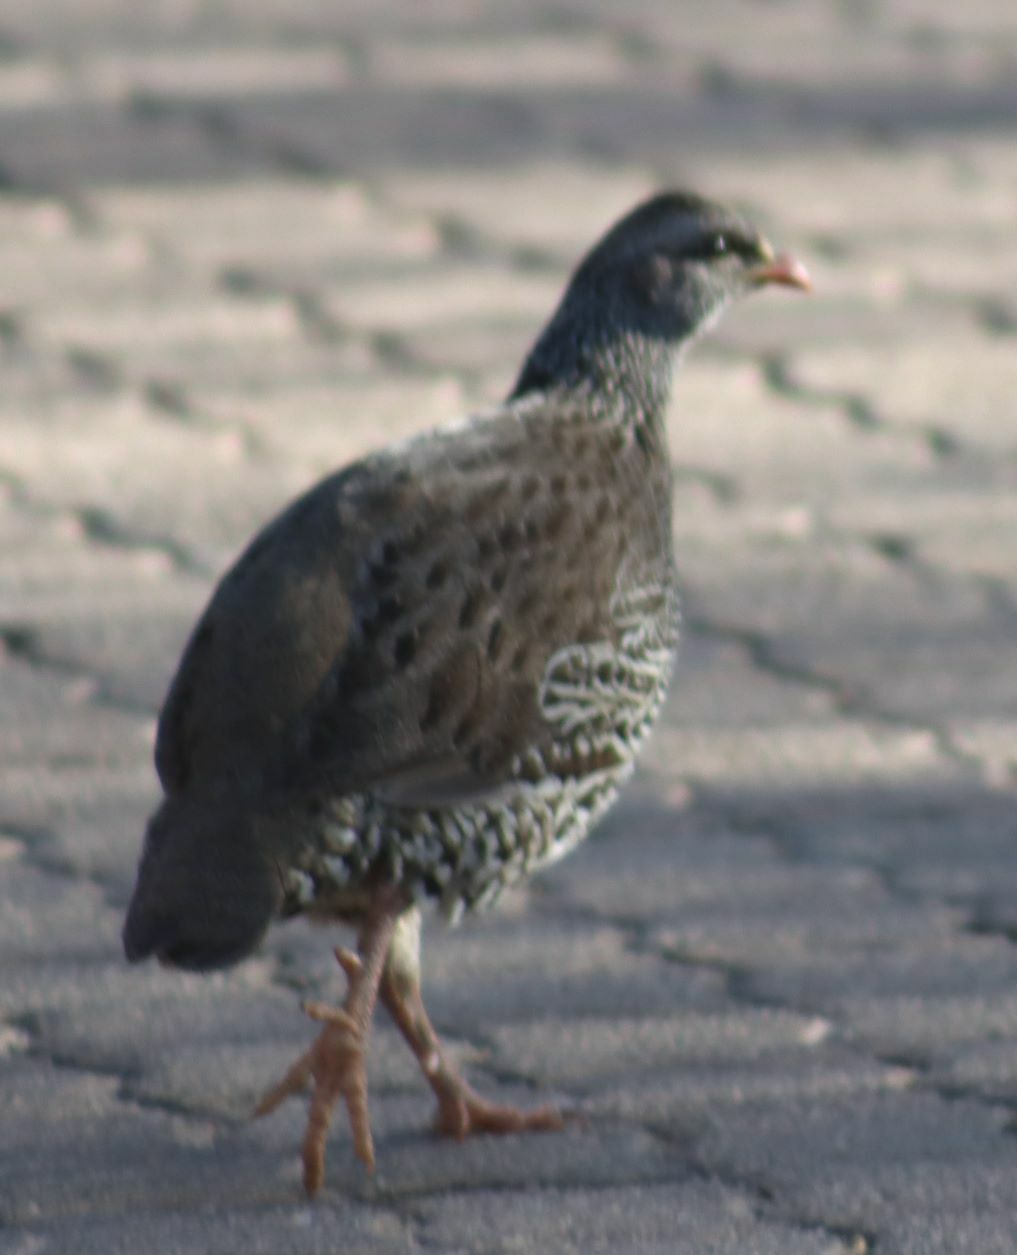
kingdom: Animalia
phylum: Chordata
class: Aves
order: Galliformes
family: Phasianidae
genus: Pternistis
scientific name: Pternistis natalensis
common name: Natal spurfowl
